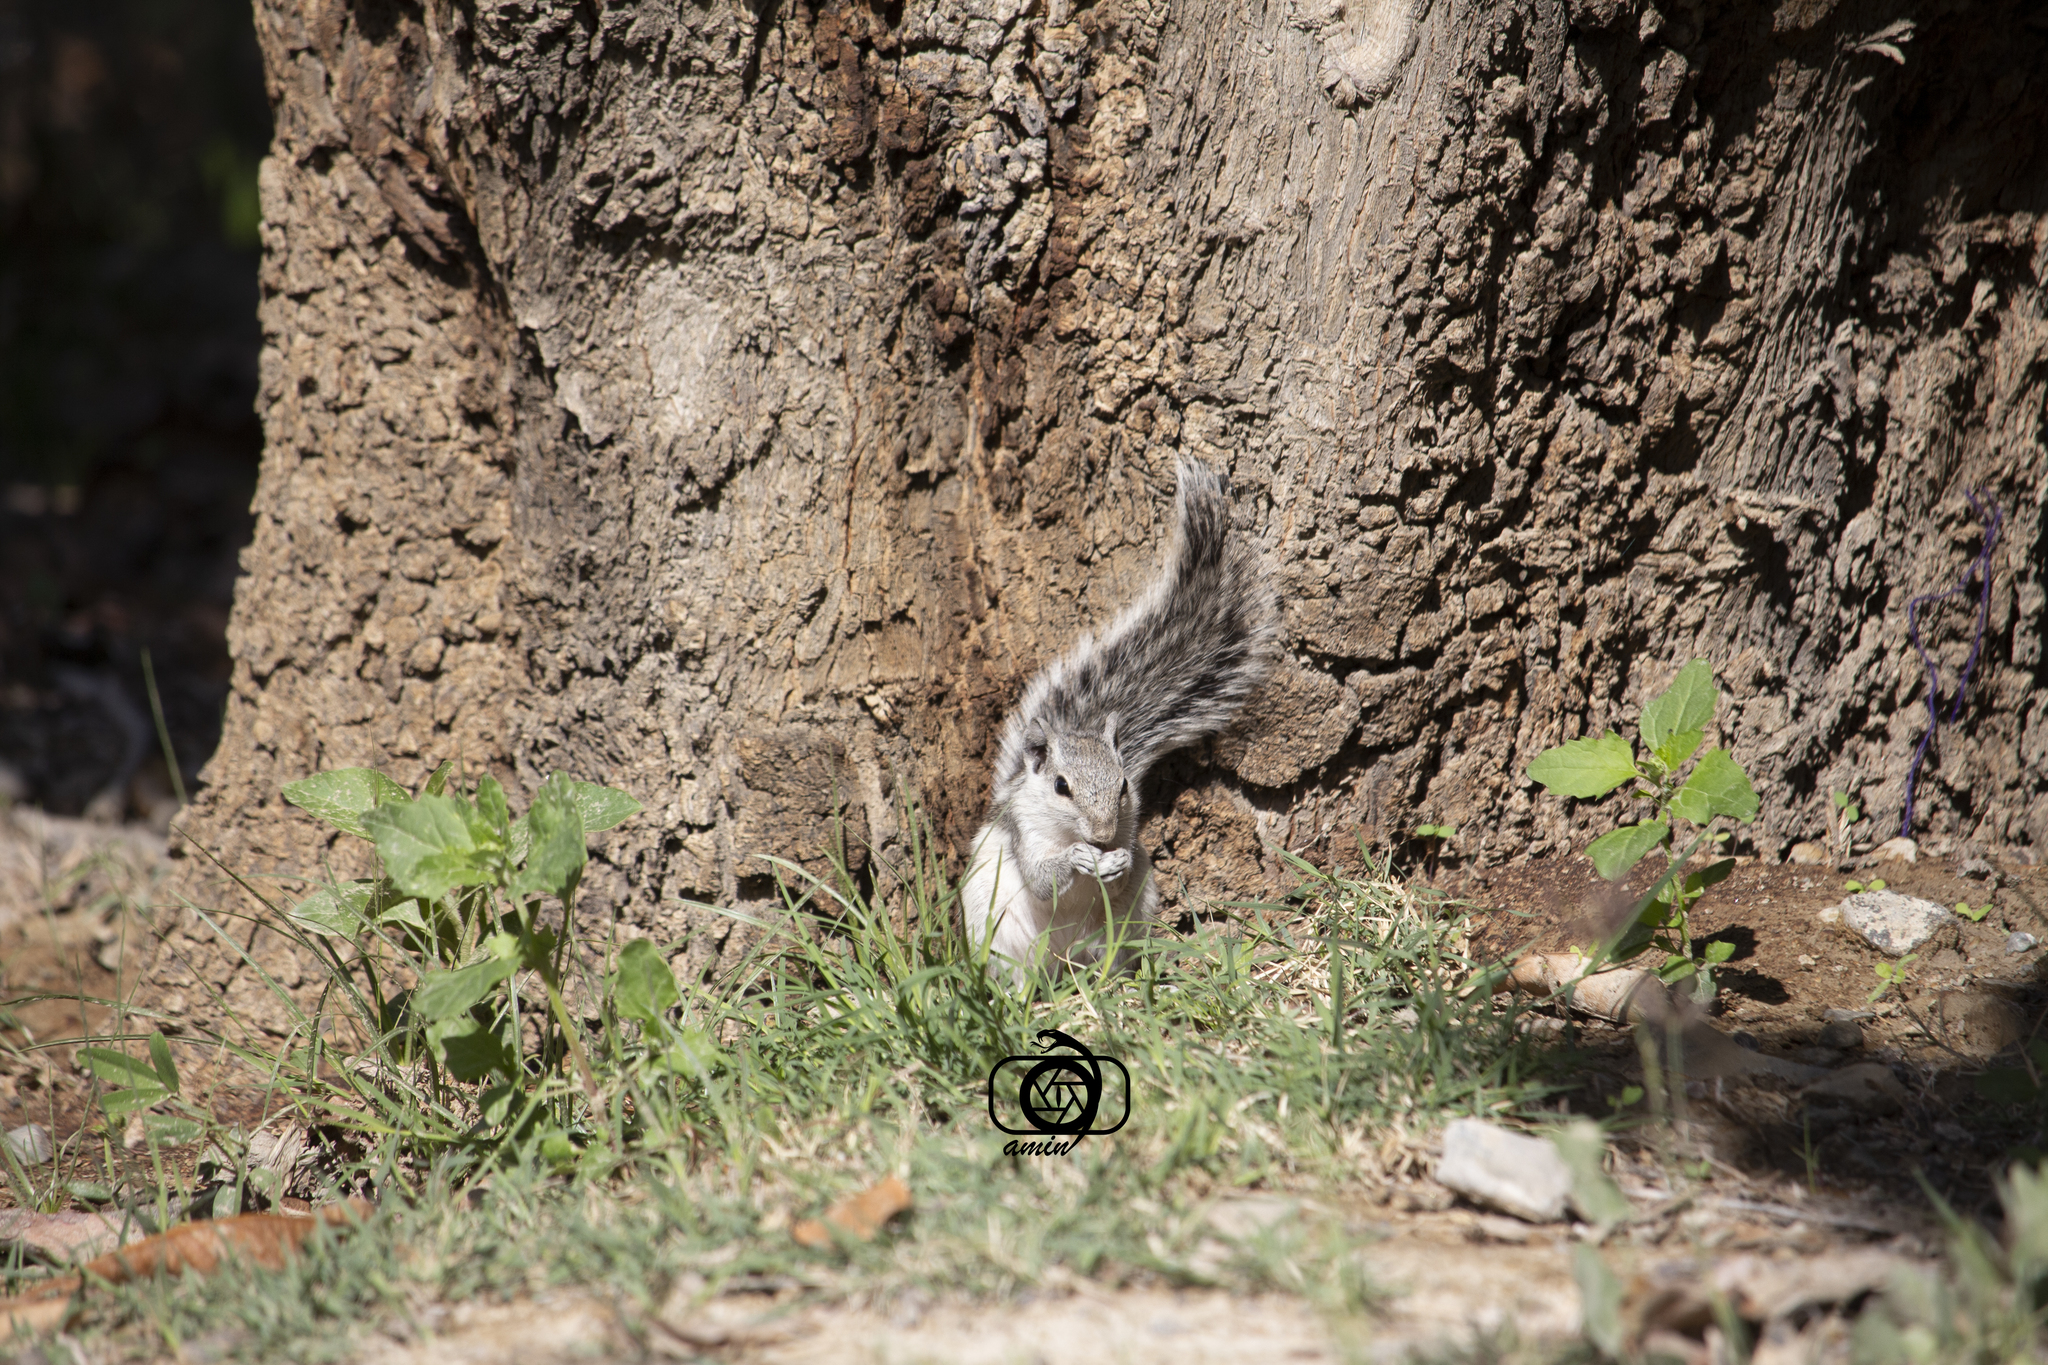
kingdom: Animalia
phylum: Chordata
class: Mammalia
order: Rodentia
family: Sciuridae
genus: Funambulus
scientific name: Funambulus pennantii
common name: Northern palm squirrel
